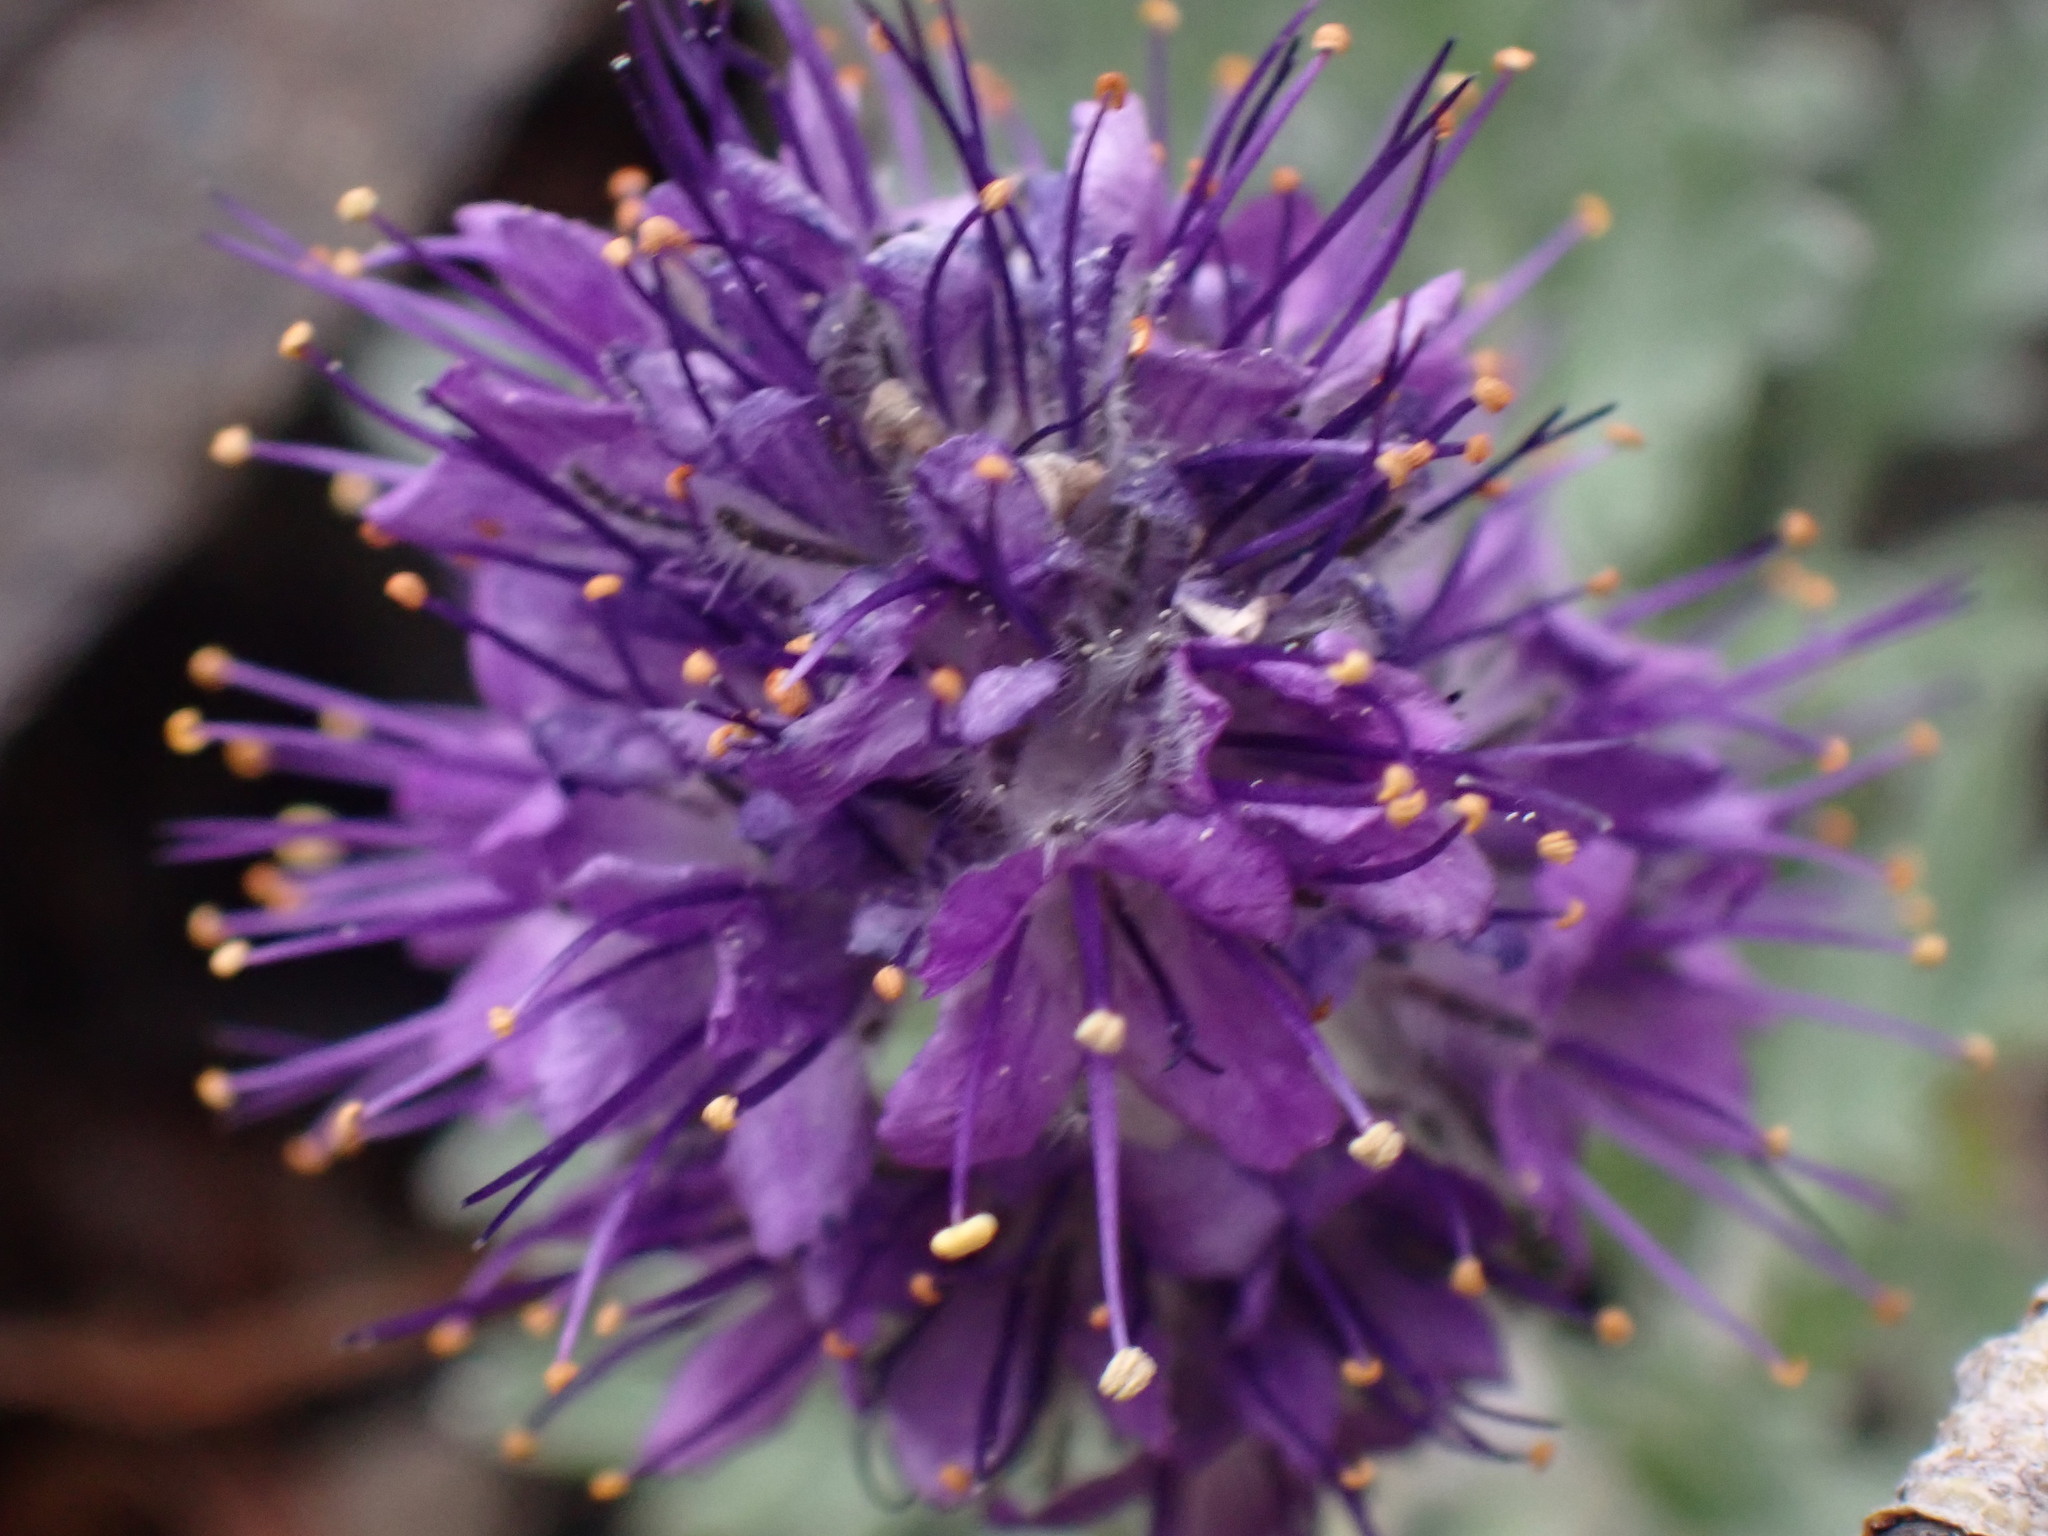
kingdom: Plantae
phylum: Tracheophyta
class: Magnoliopsida
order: Boraginales
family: Hydrophyllaceae
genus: Phacelia
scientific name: Phacelia sericea
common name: Silky phacelia
